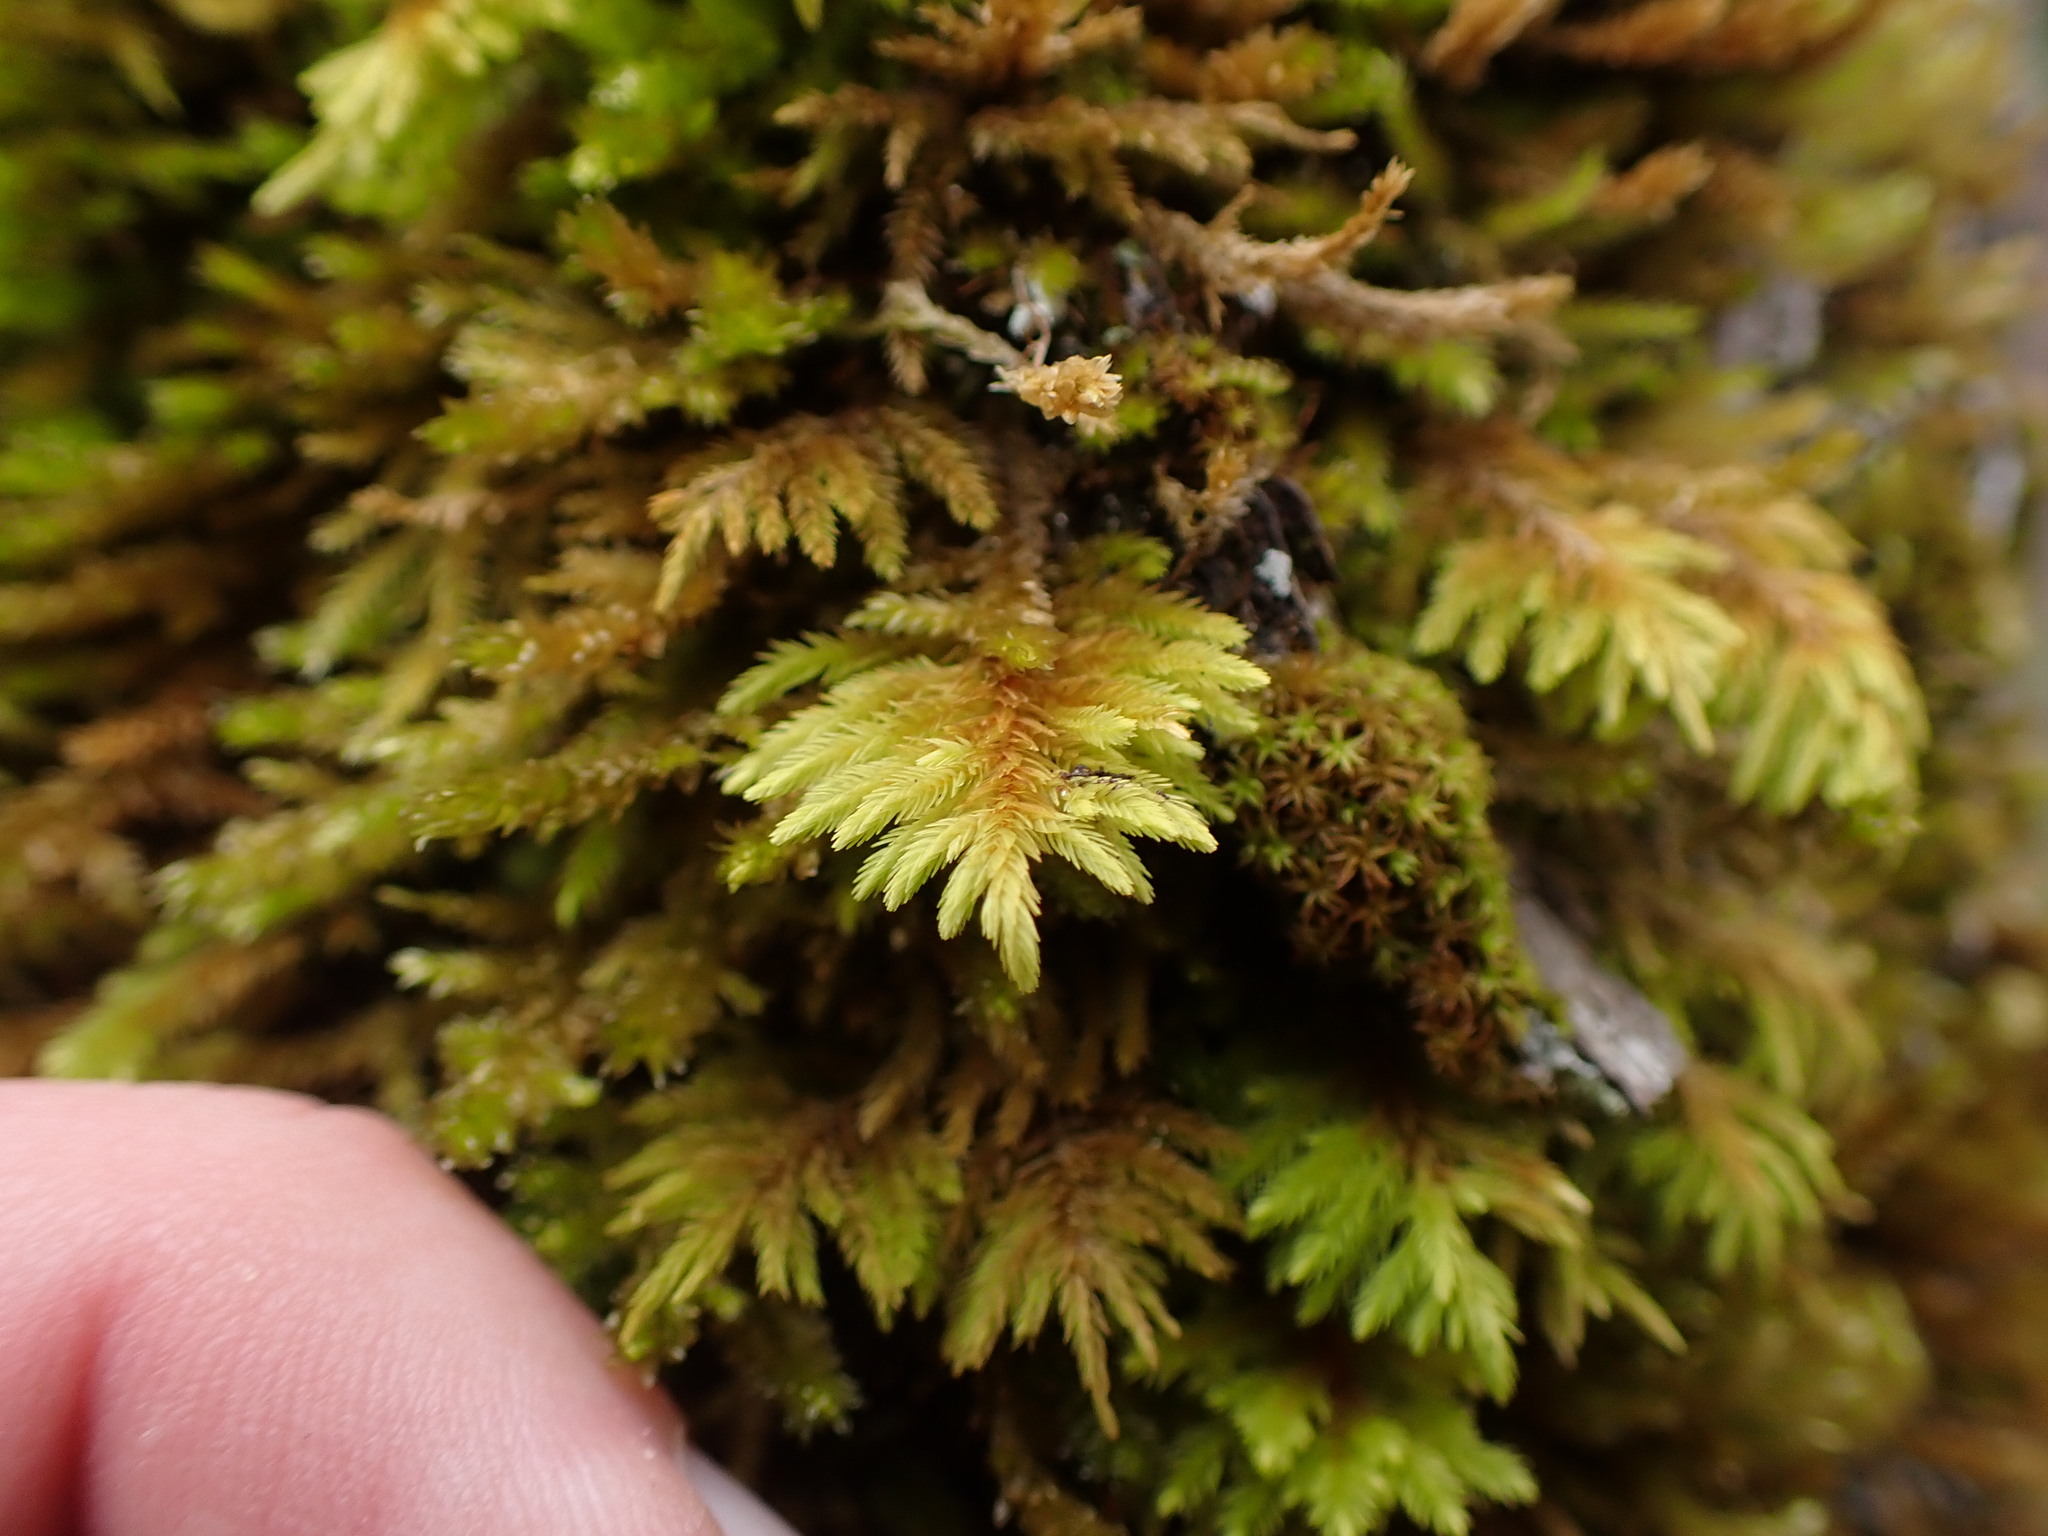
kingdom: Plantae
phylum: Bryophyta
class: Bryopsida
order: Hypnales
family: Cryphaeaceae
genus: Dendroalsia
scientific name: Dendroalsia abietina
